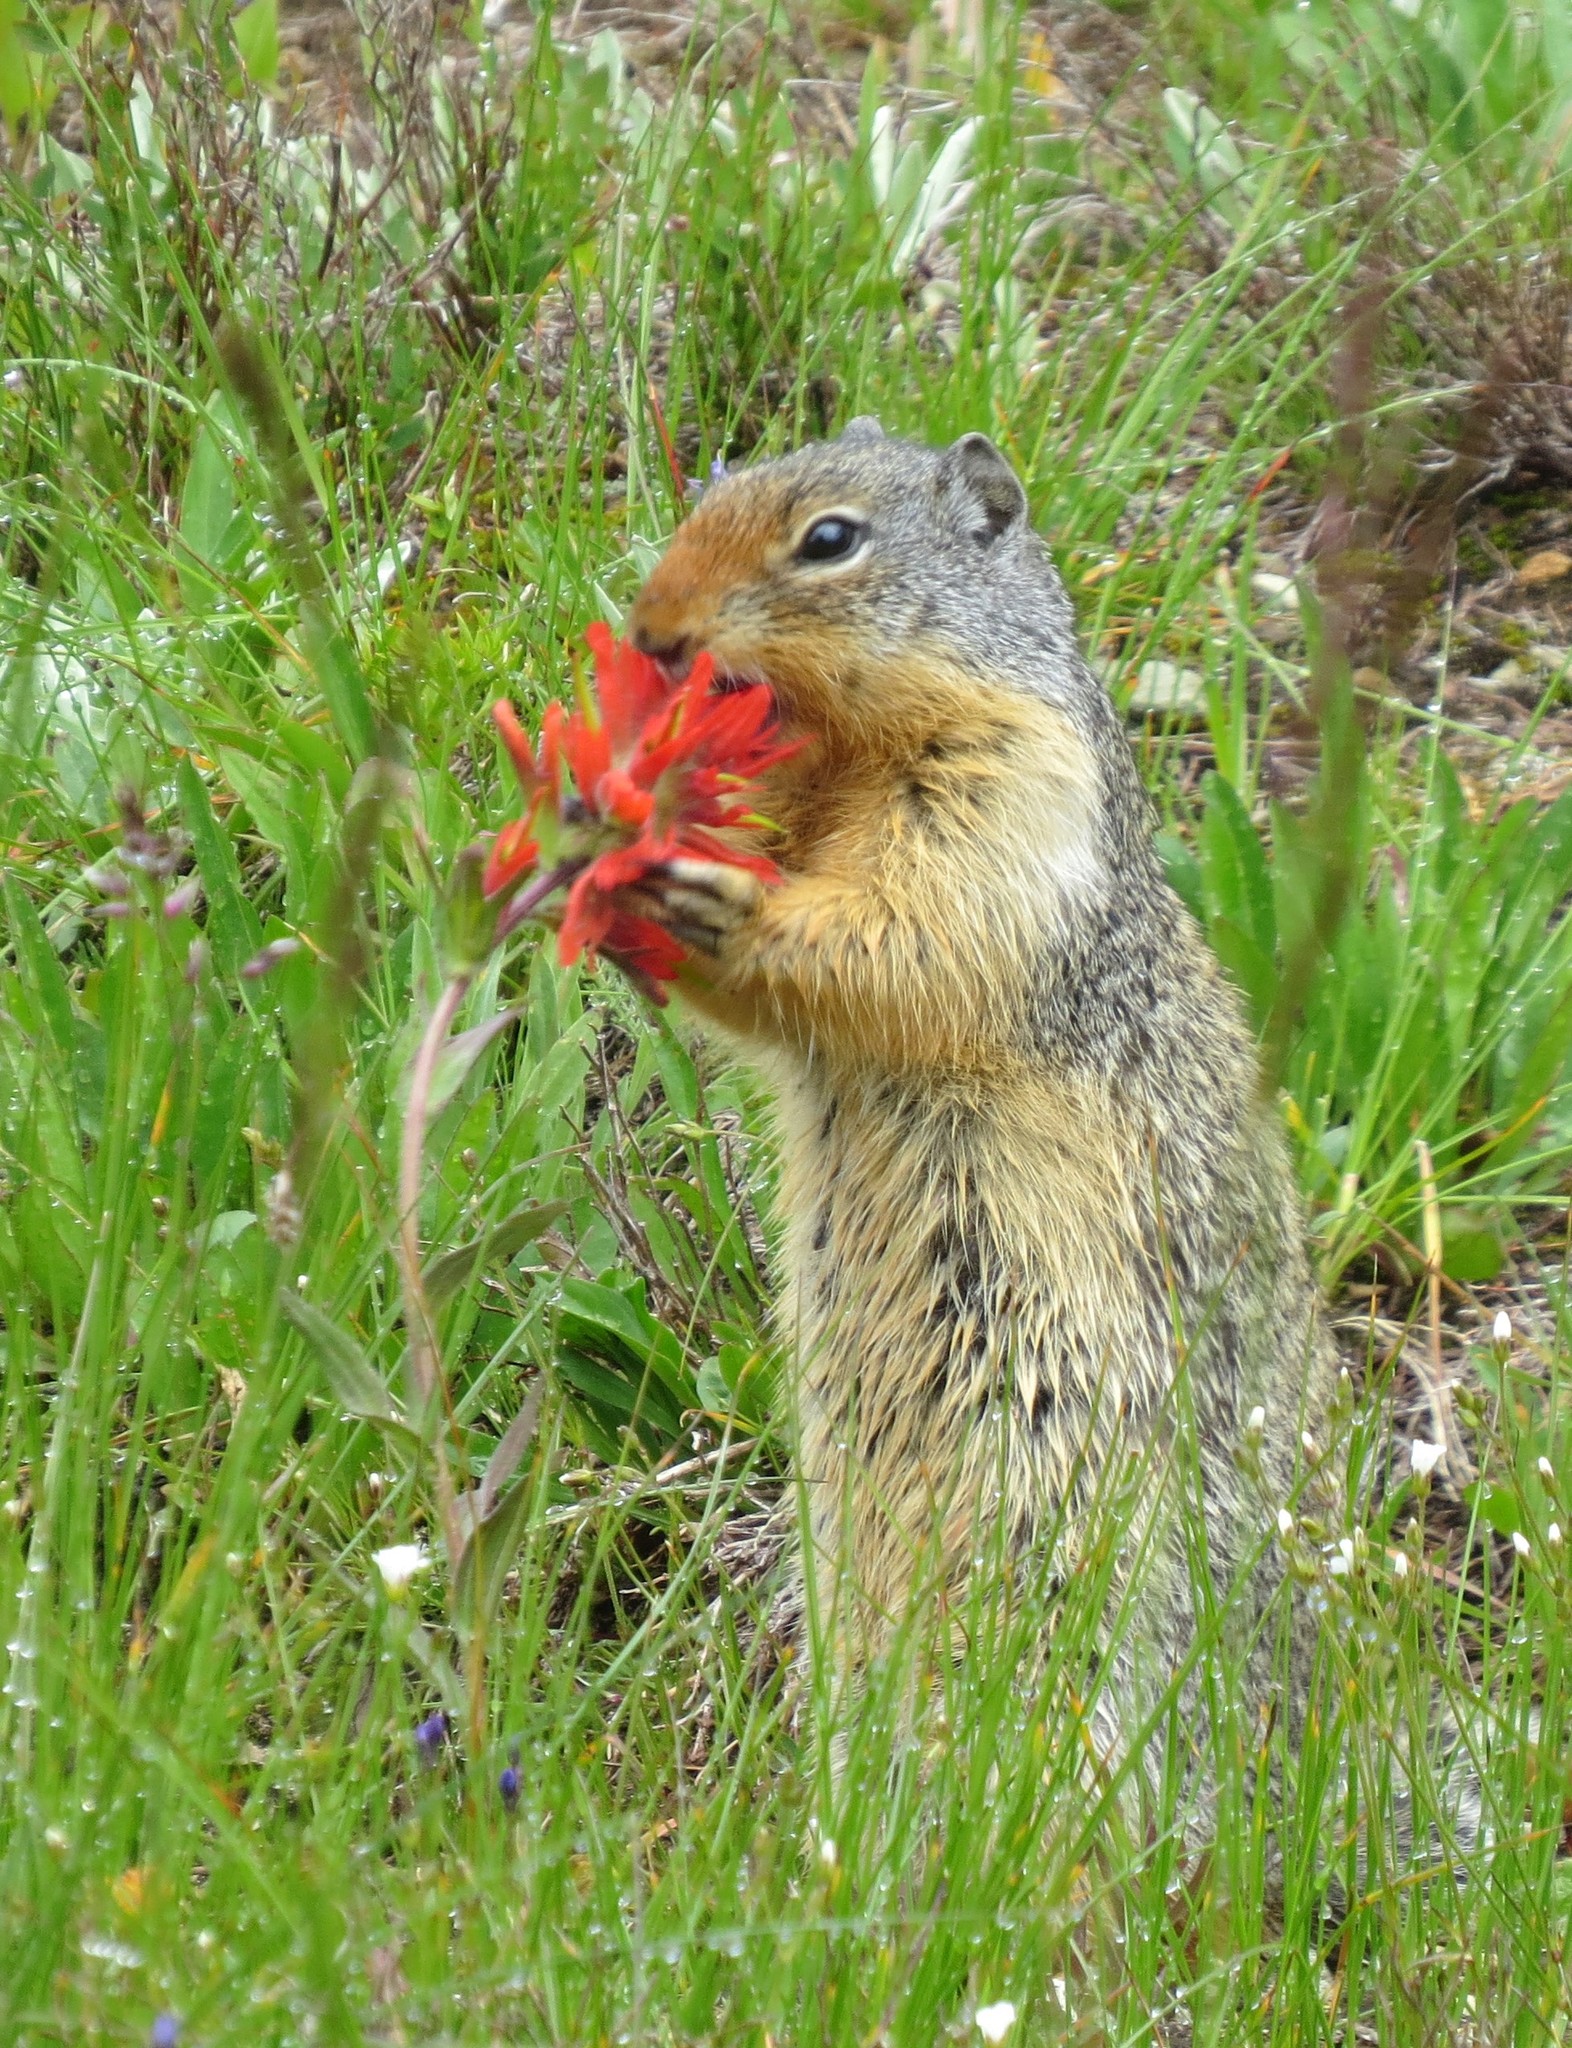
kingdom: Animalia
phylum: Chordata
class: Mammalia
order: Rodentia
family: Sciuridae
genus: Urocitellus
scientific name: Urocitellus columbianus
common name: Columbian ground squirrel
